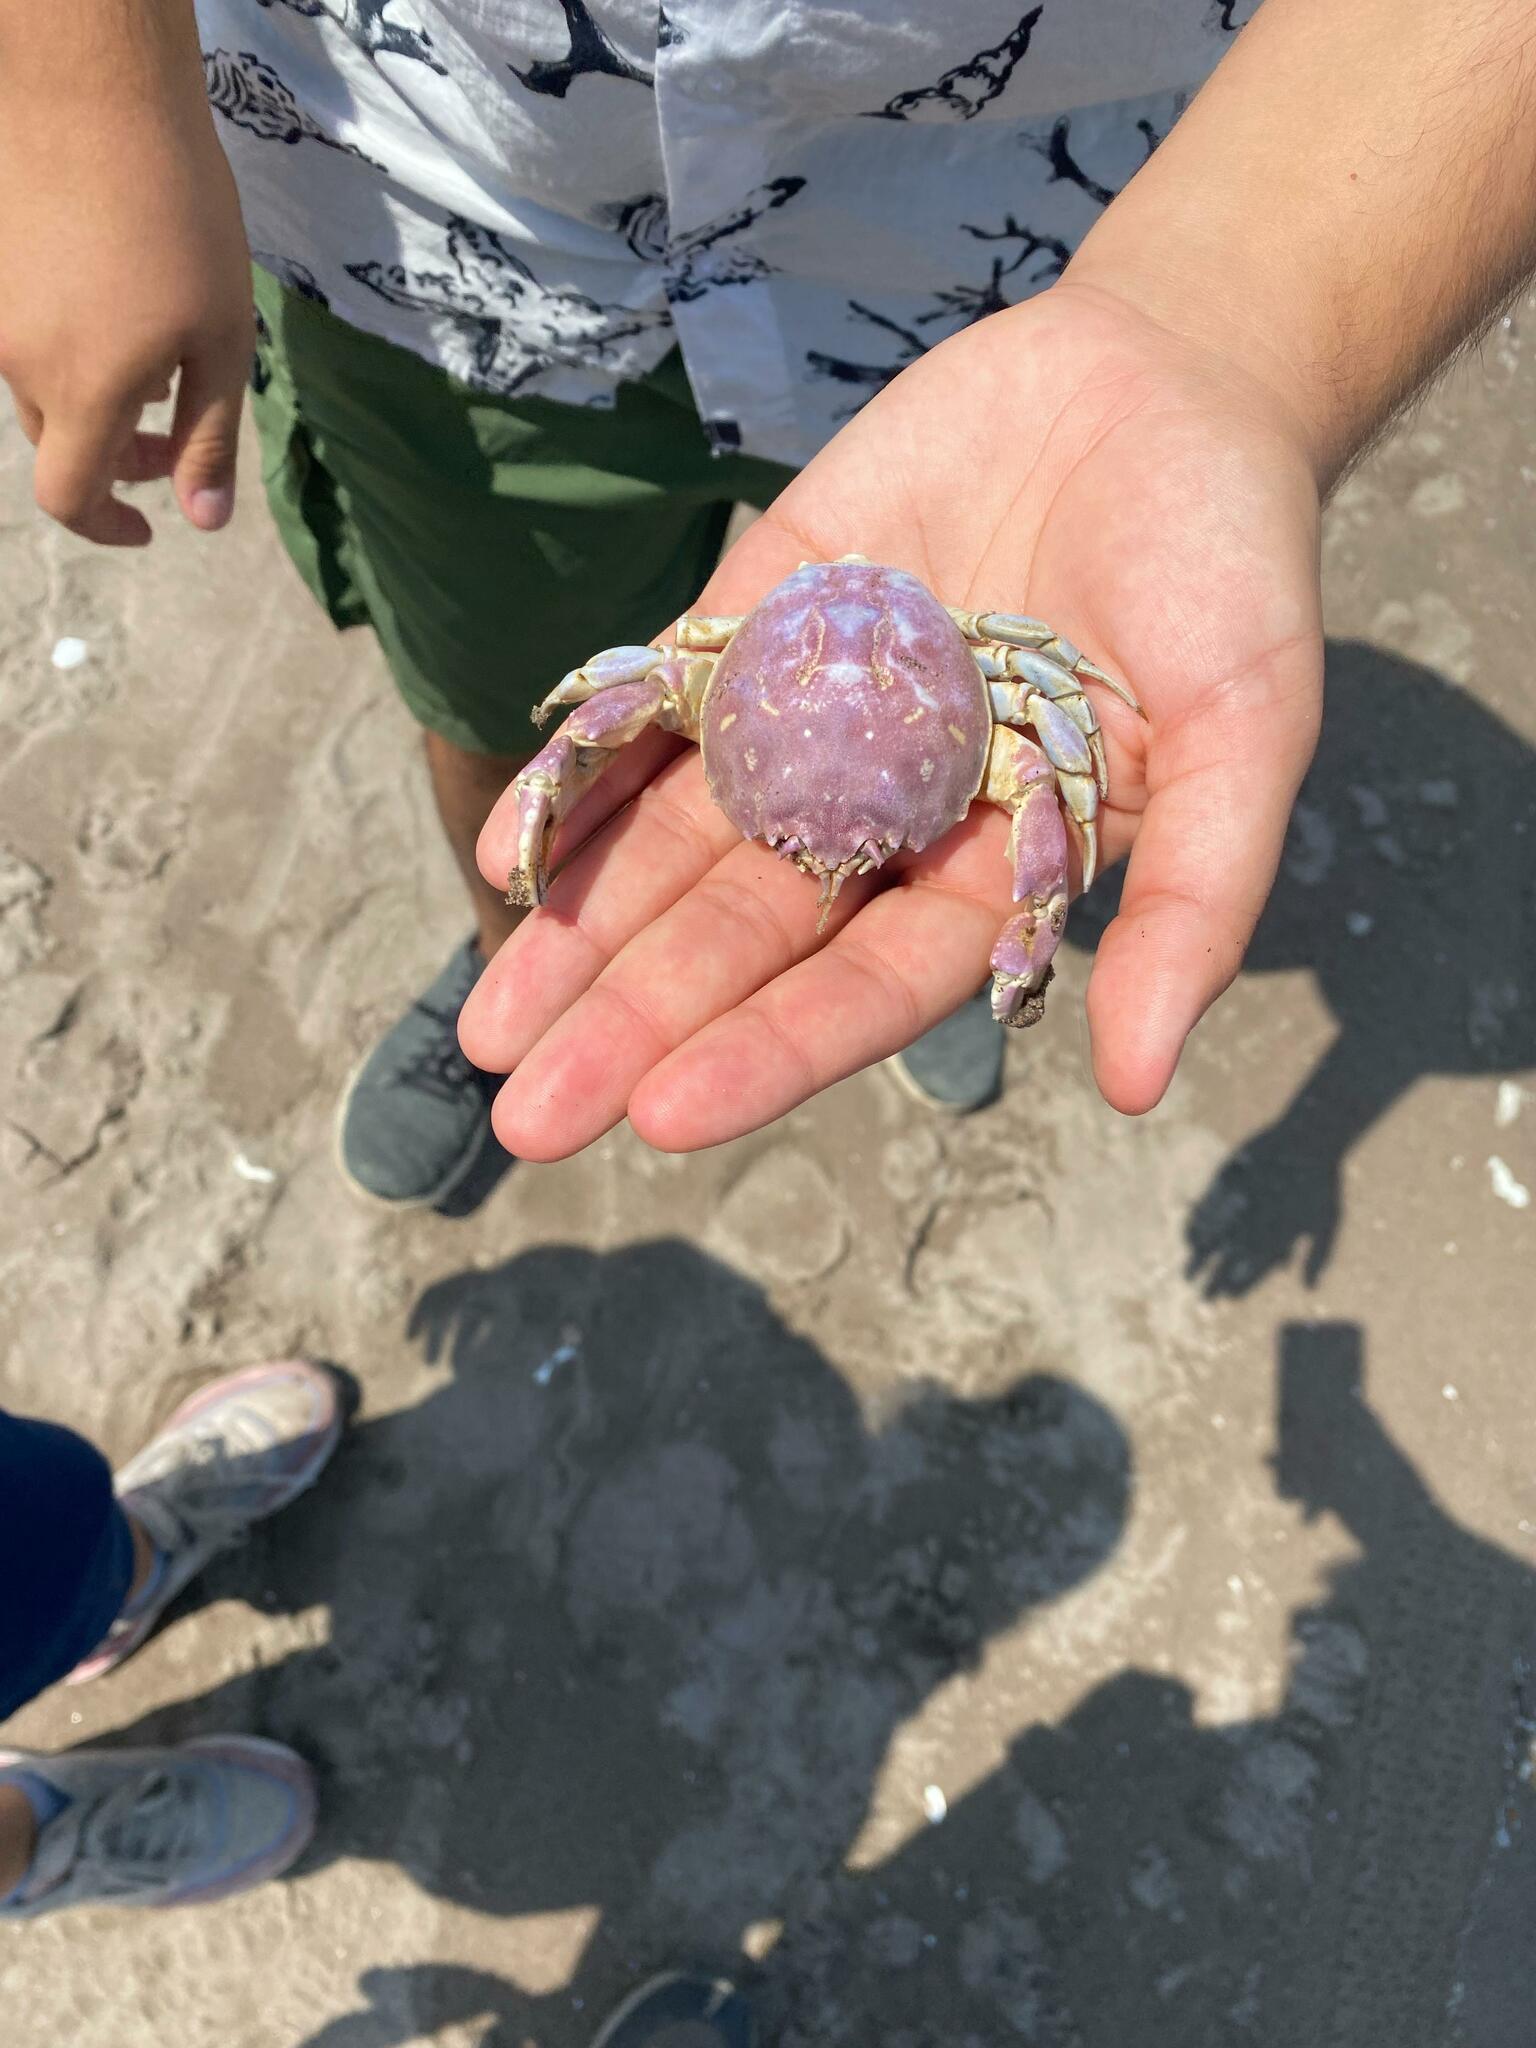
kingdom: Animalia
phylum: Arthropoda
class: Malacostraca
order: Decapoda
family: Atelecyclidae
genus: Pseudocorystes
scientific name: Pseudocorystes sicarius
